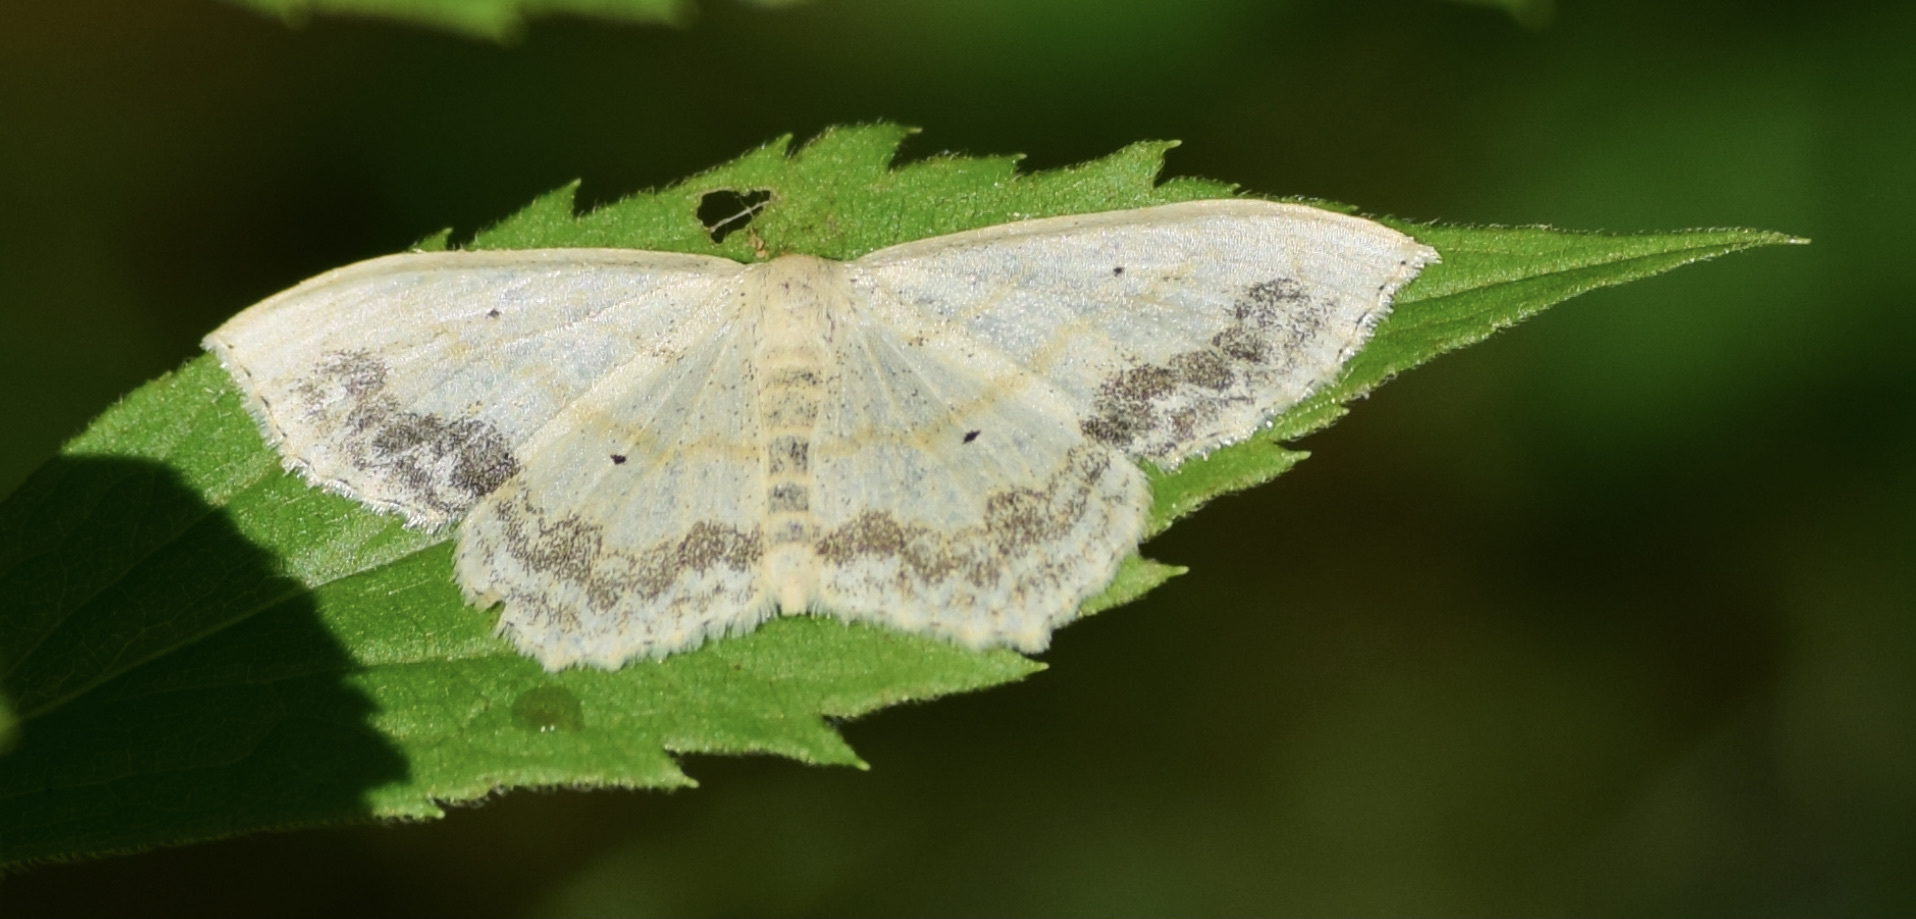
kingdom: Animalia
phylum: Arthropoda
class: Insecta
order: Lepidoptera
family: Geometridae
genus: Scopula
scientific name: Scopula limboundata
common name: Large lace border
